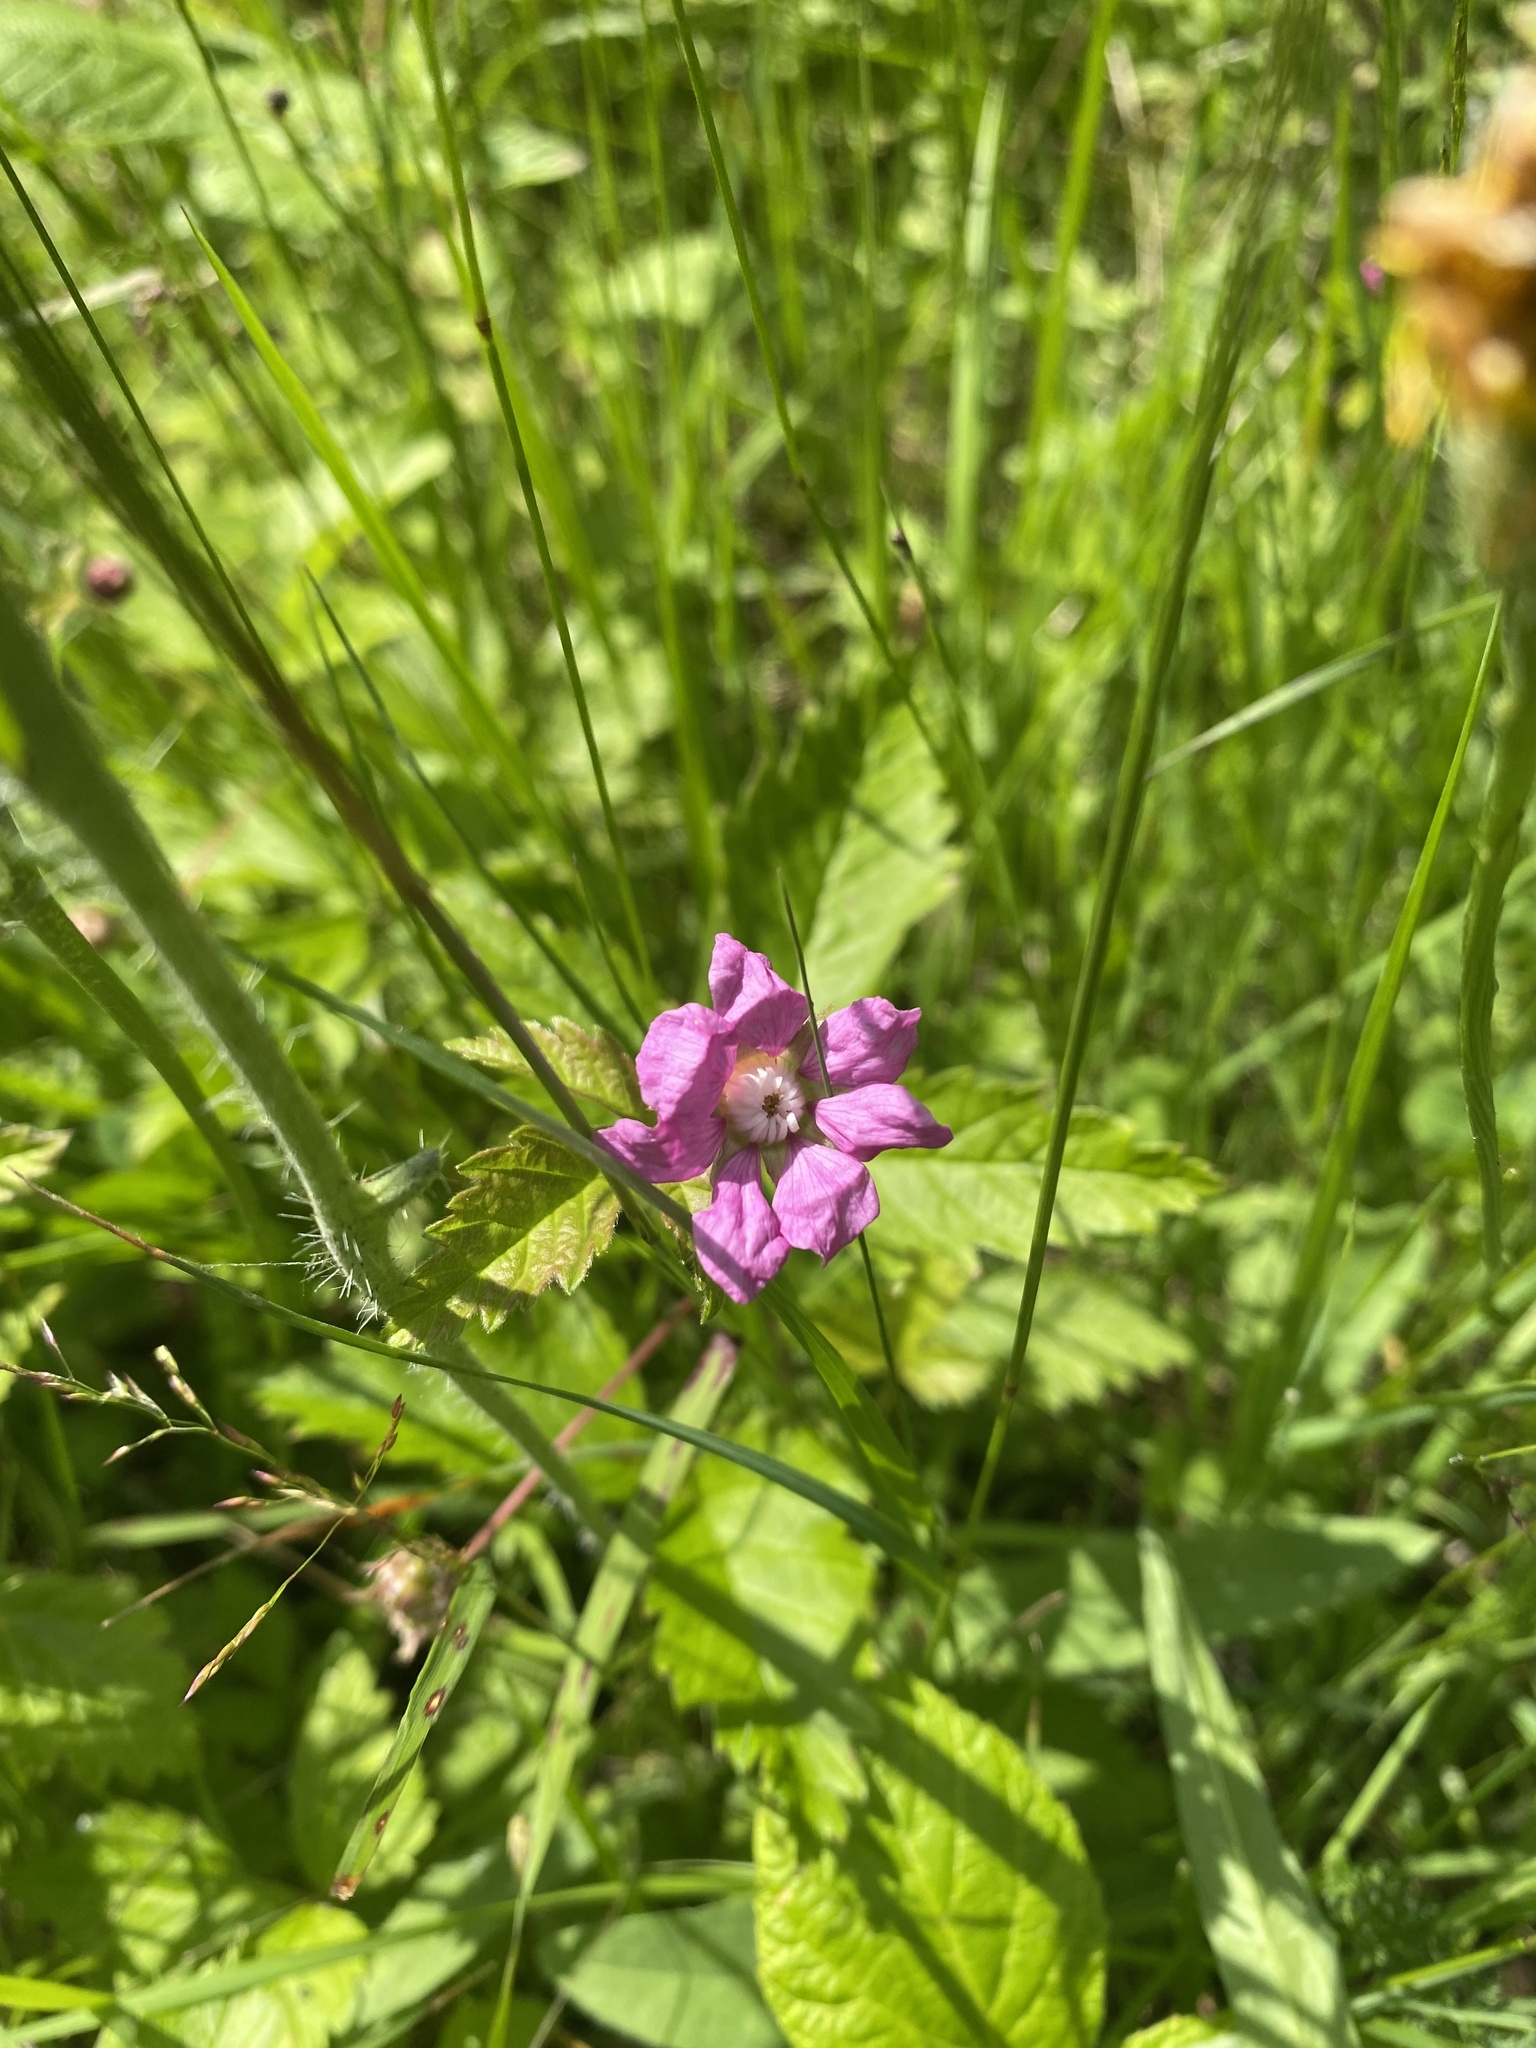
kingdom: Plantae
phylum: Tracheophyta
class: Magnoliopsida
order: Rosales
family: Rosaceae
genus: Rubus
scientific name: Rubus arcticus
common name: Arctic bramble
